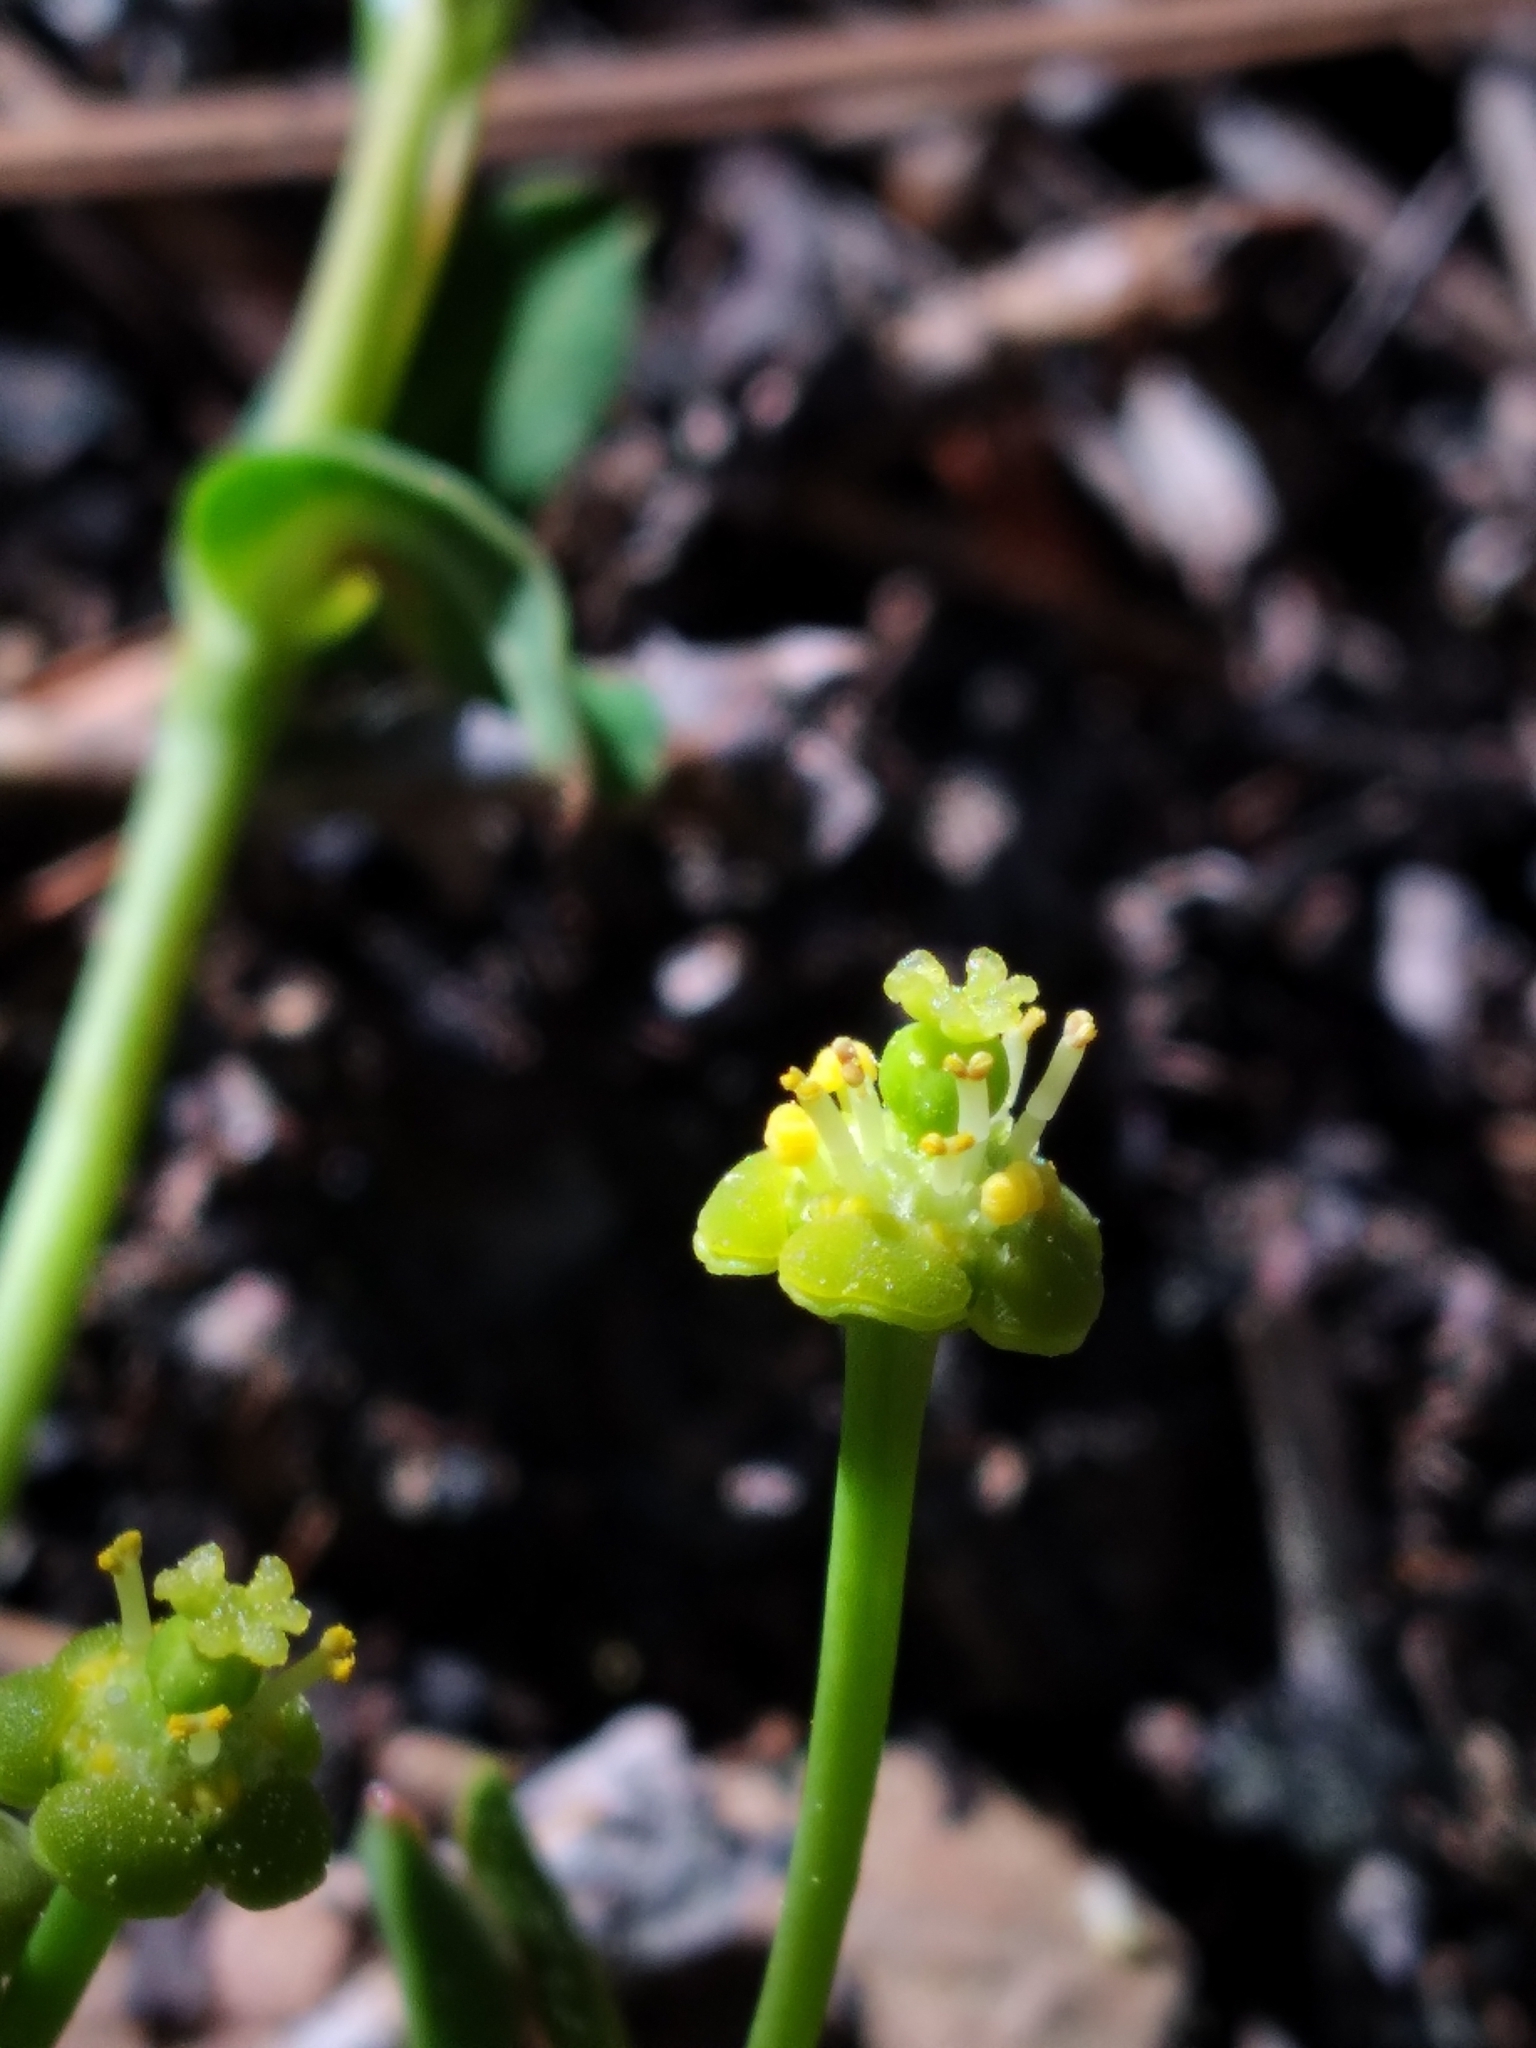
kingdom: Plantae
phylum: Tracheophyta
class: Magnoliopsida
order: Malpighiales
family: Euphorbiaceae
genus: Euphorbia
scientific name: Euphorbia ipecacuanhae
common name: Carolina ipecac
